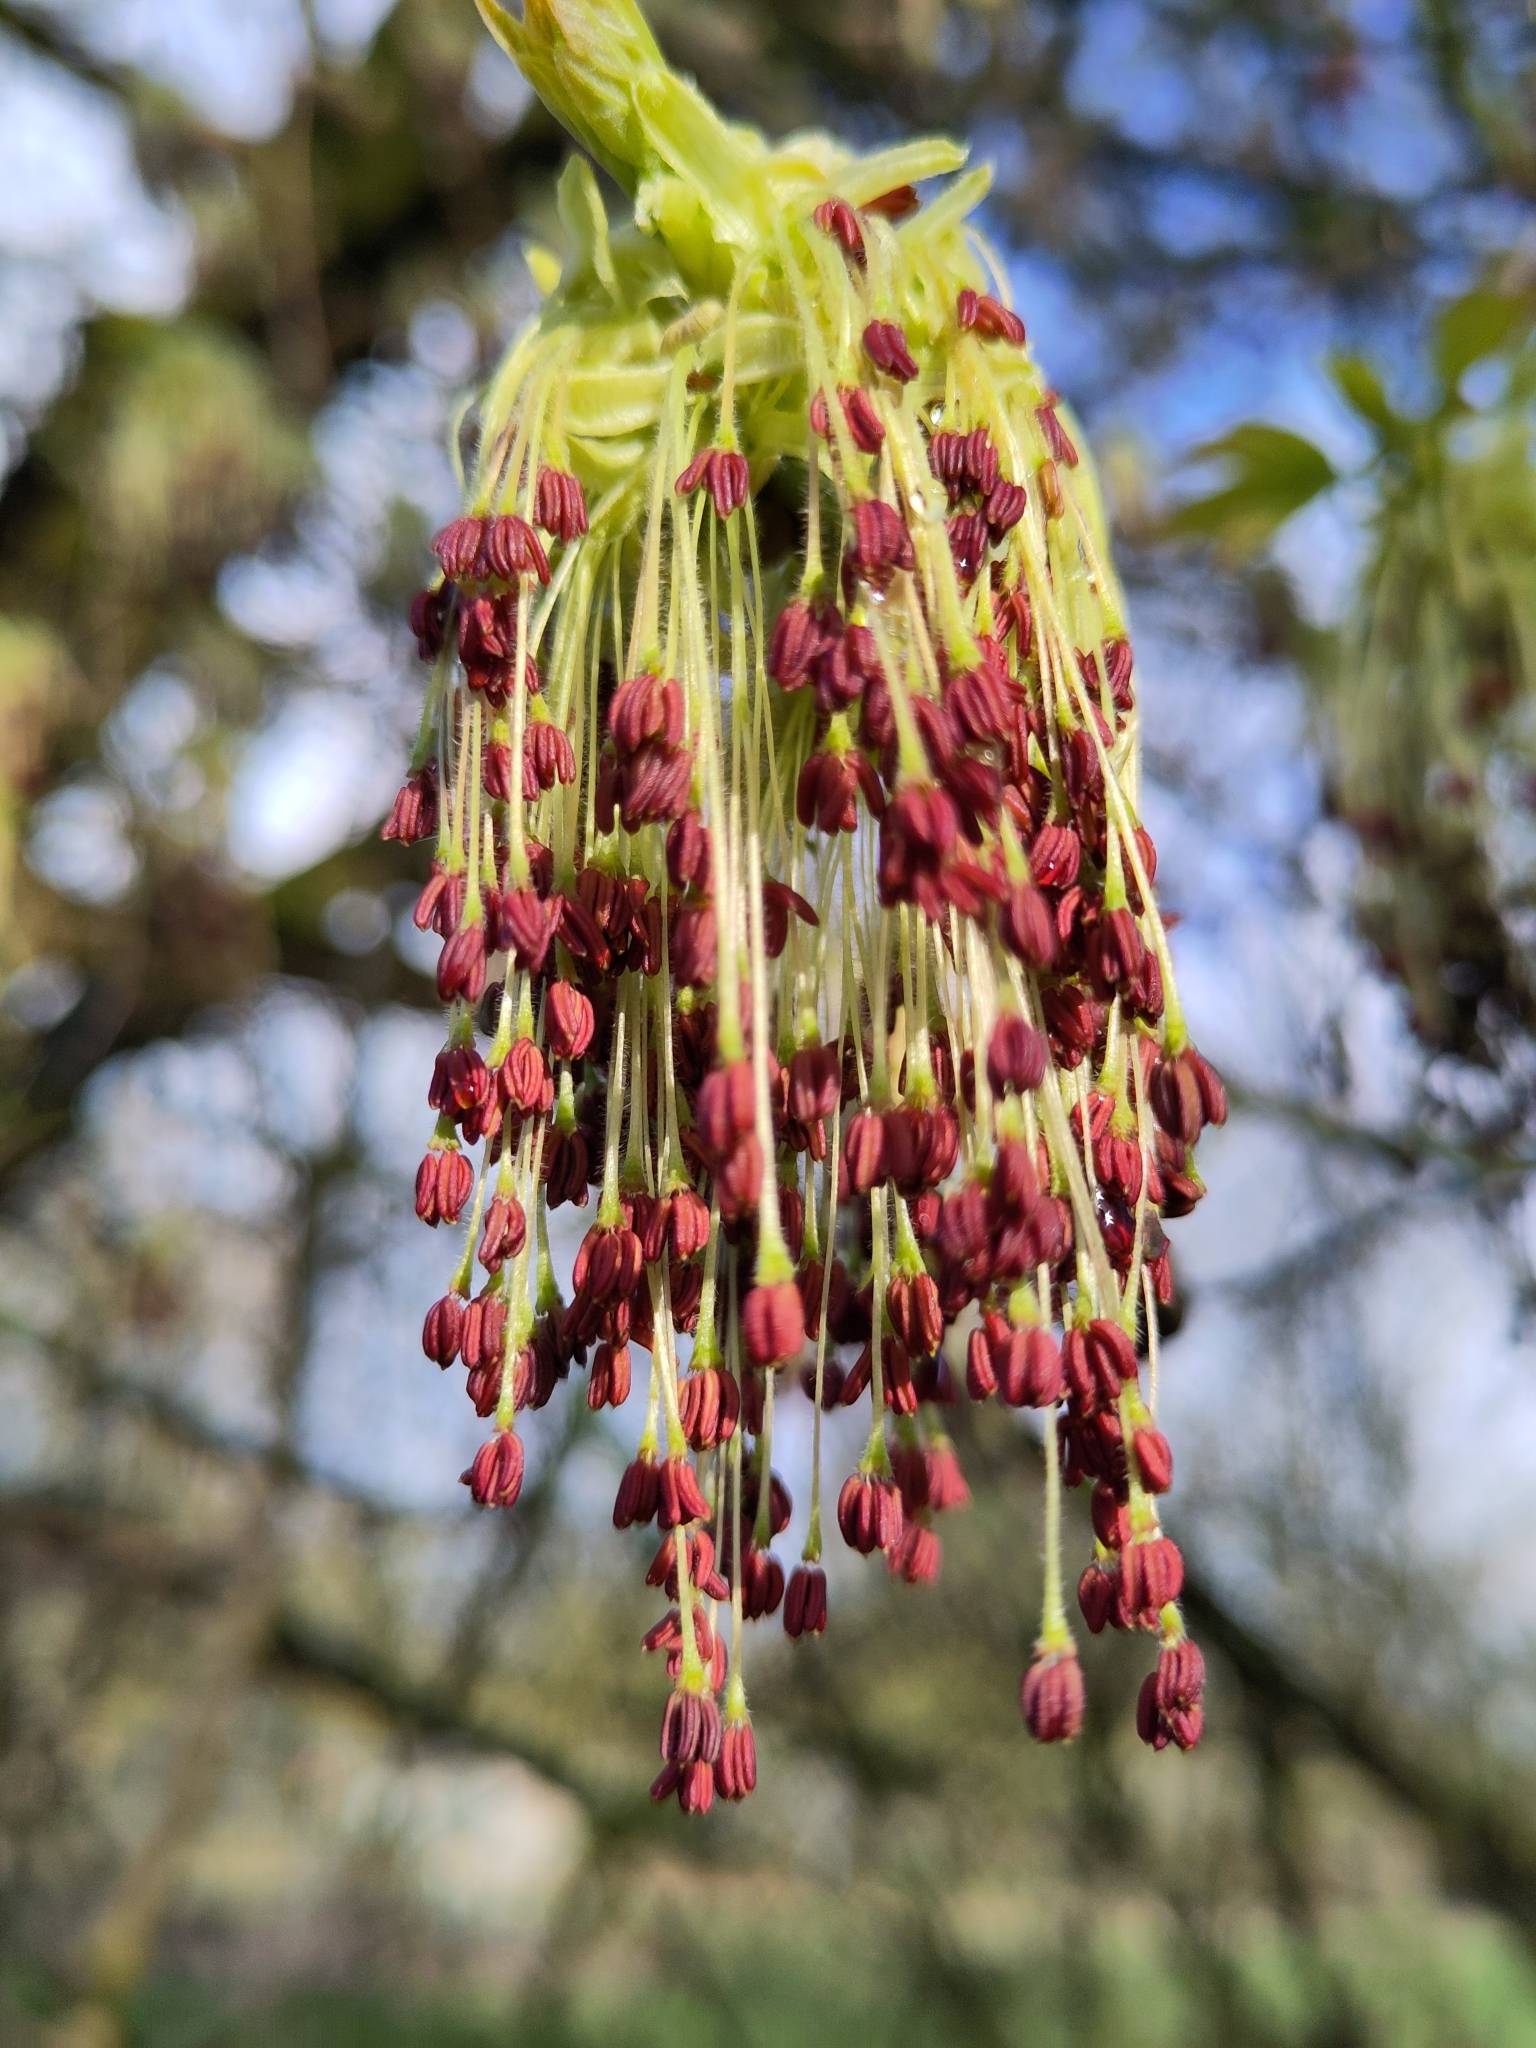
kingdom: Plantae
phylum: Tracheophyta
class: Magnoliopsida
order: Sapindales
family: Sapindaceae
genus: Acer
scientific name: Acer negundo
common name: Ashleaf maple
